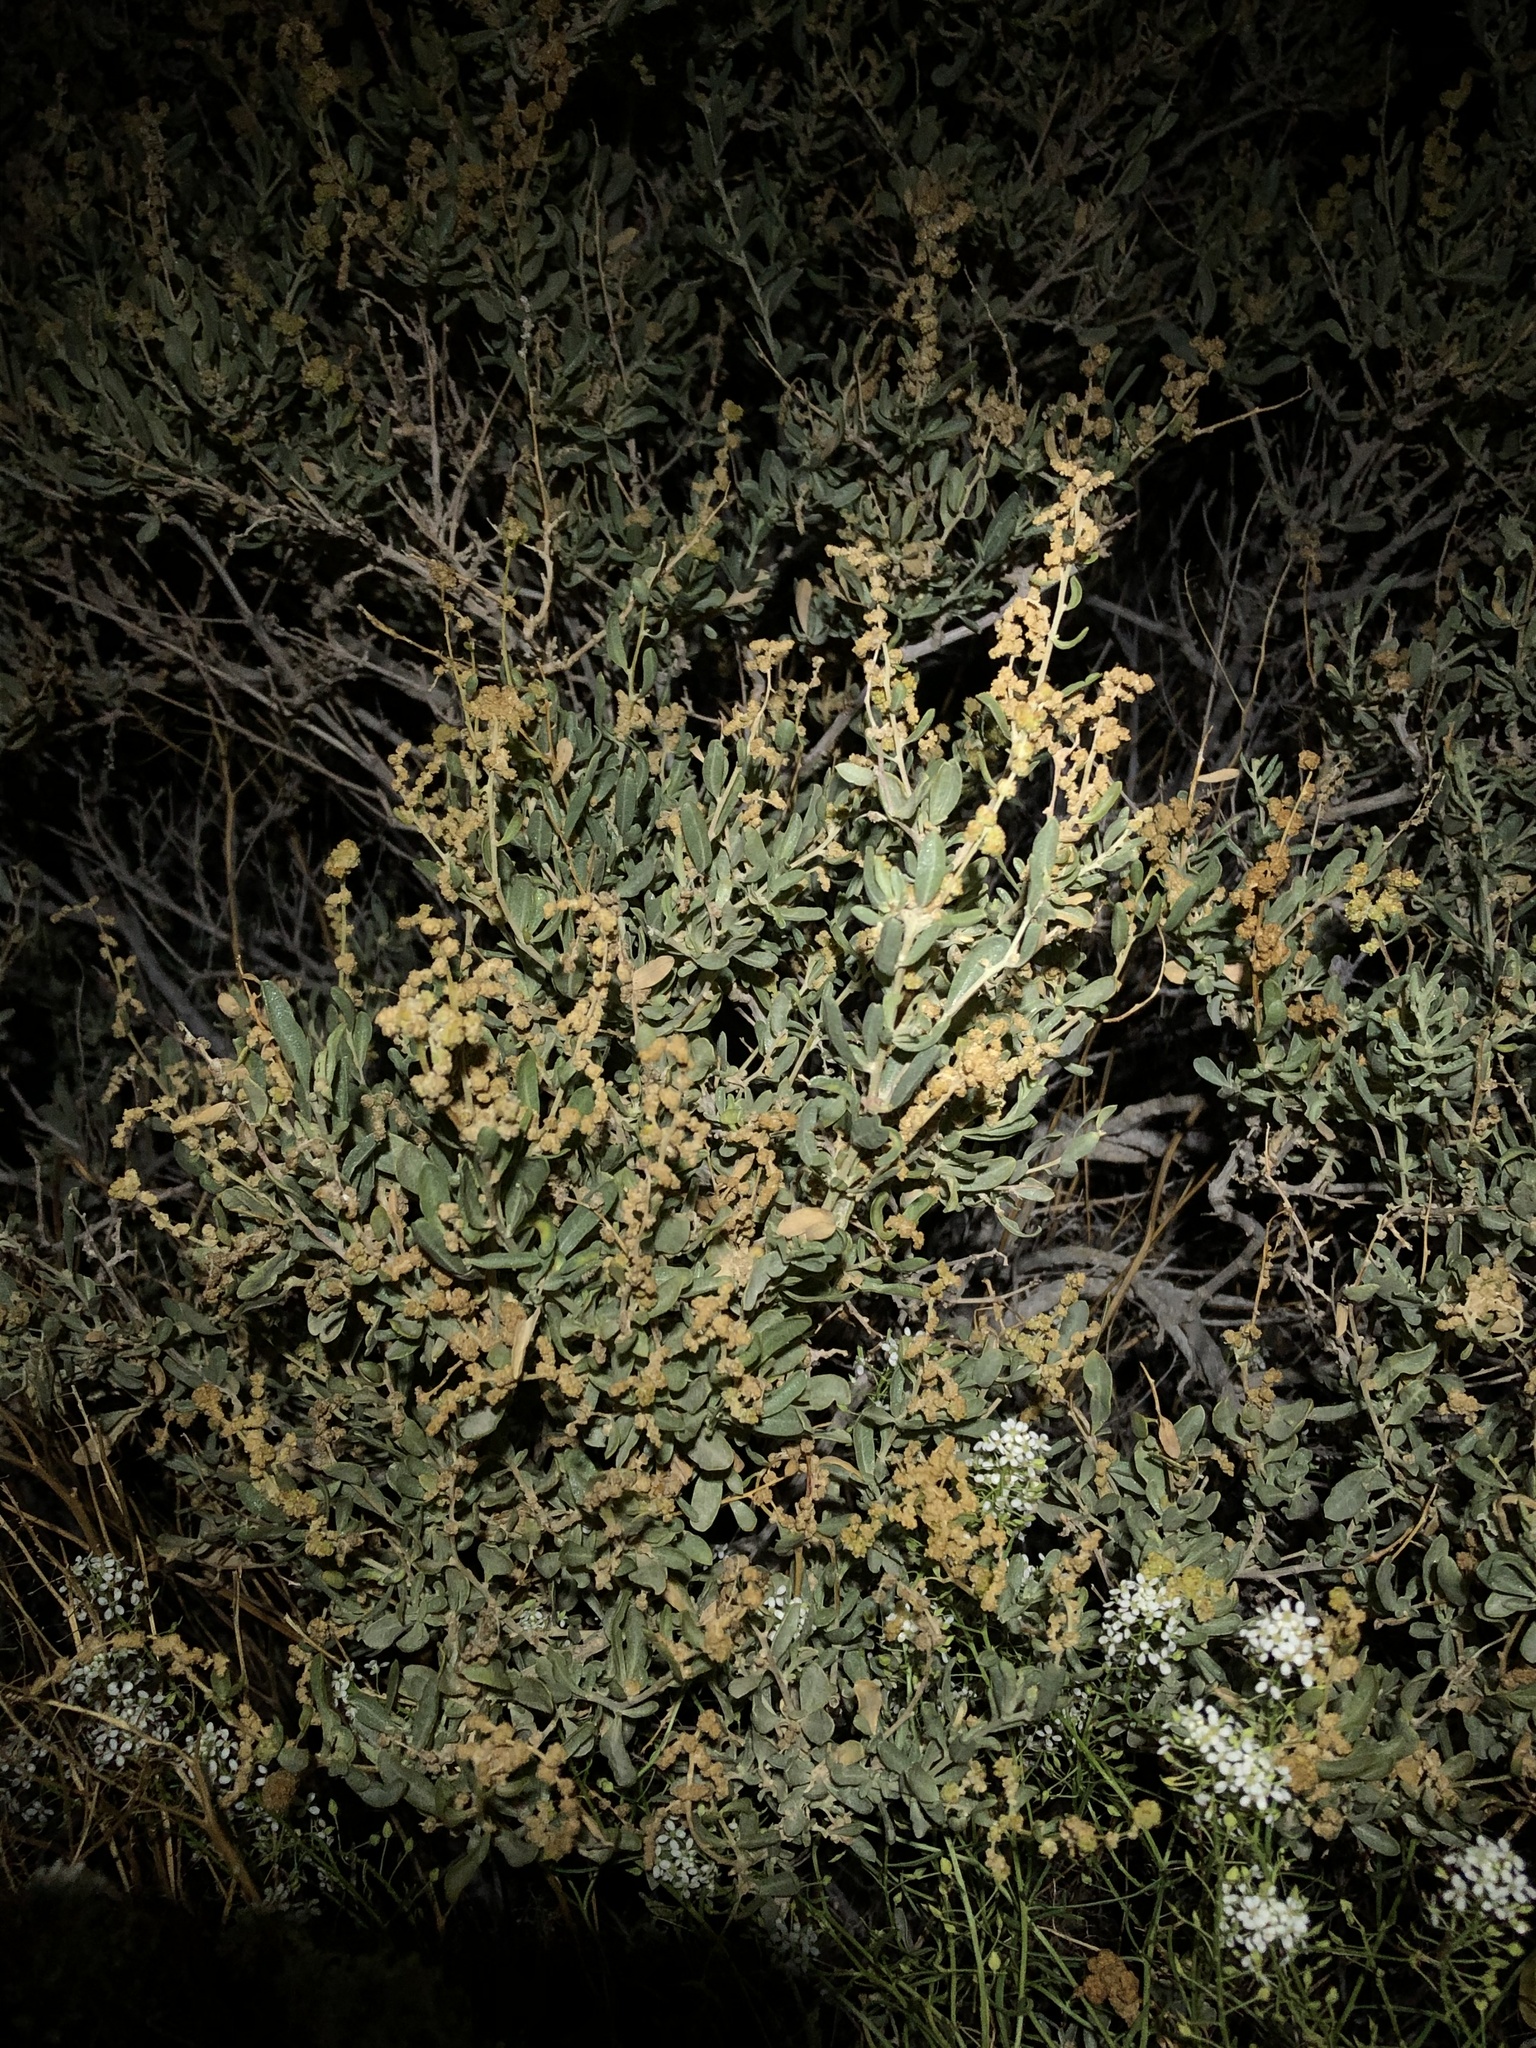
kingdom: Plantae
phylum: Tracheophyta
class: Magnoliopsida
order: Caryophyllales
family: Amaranthaceae
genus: Atriplex
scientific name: Atriplex canescens
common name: Four-wing saltbush
